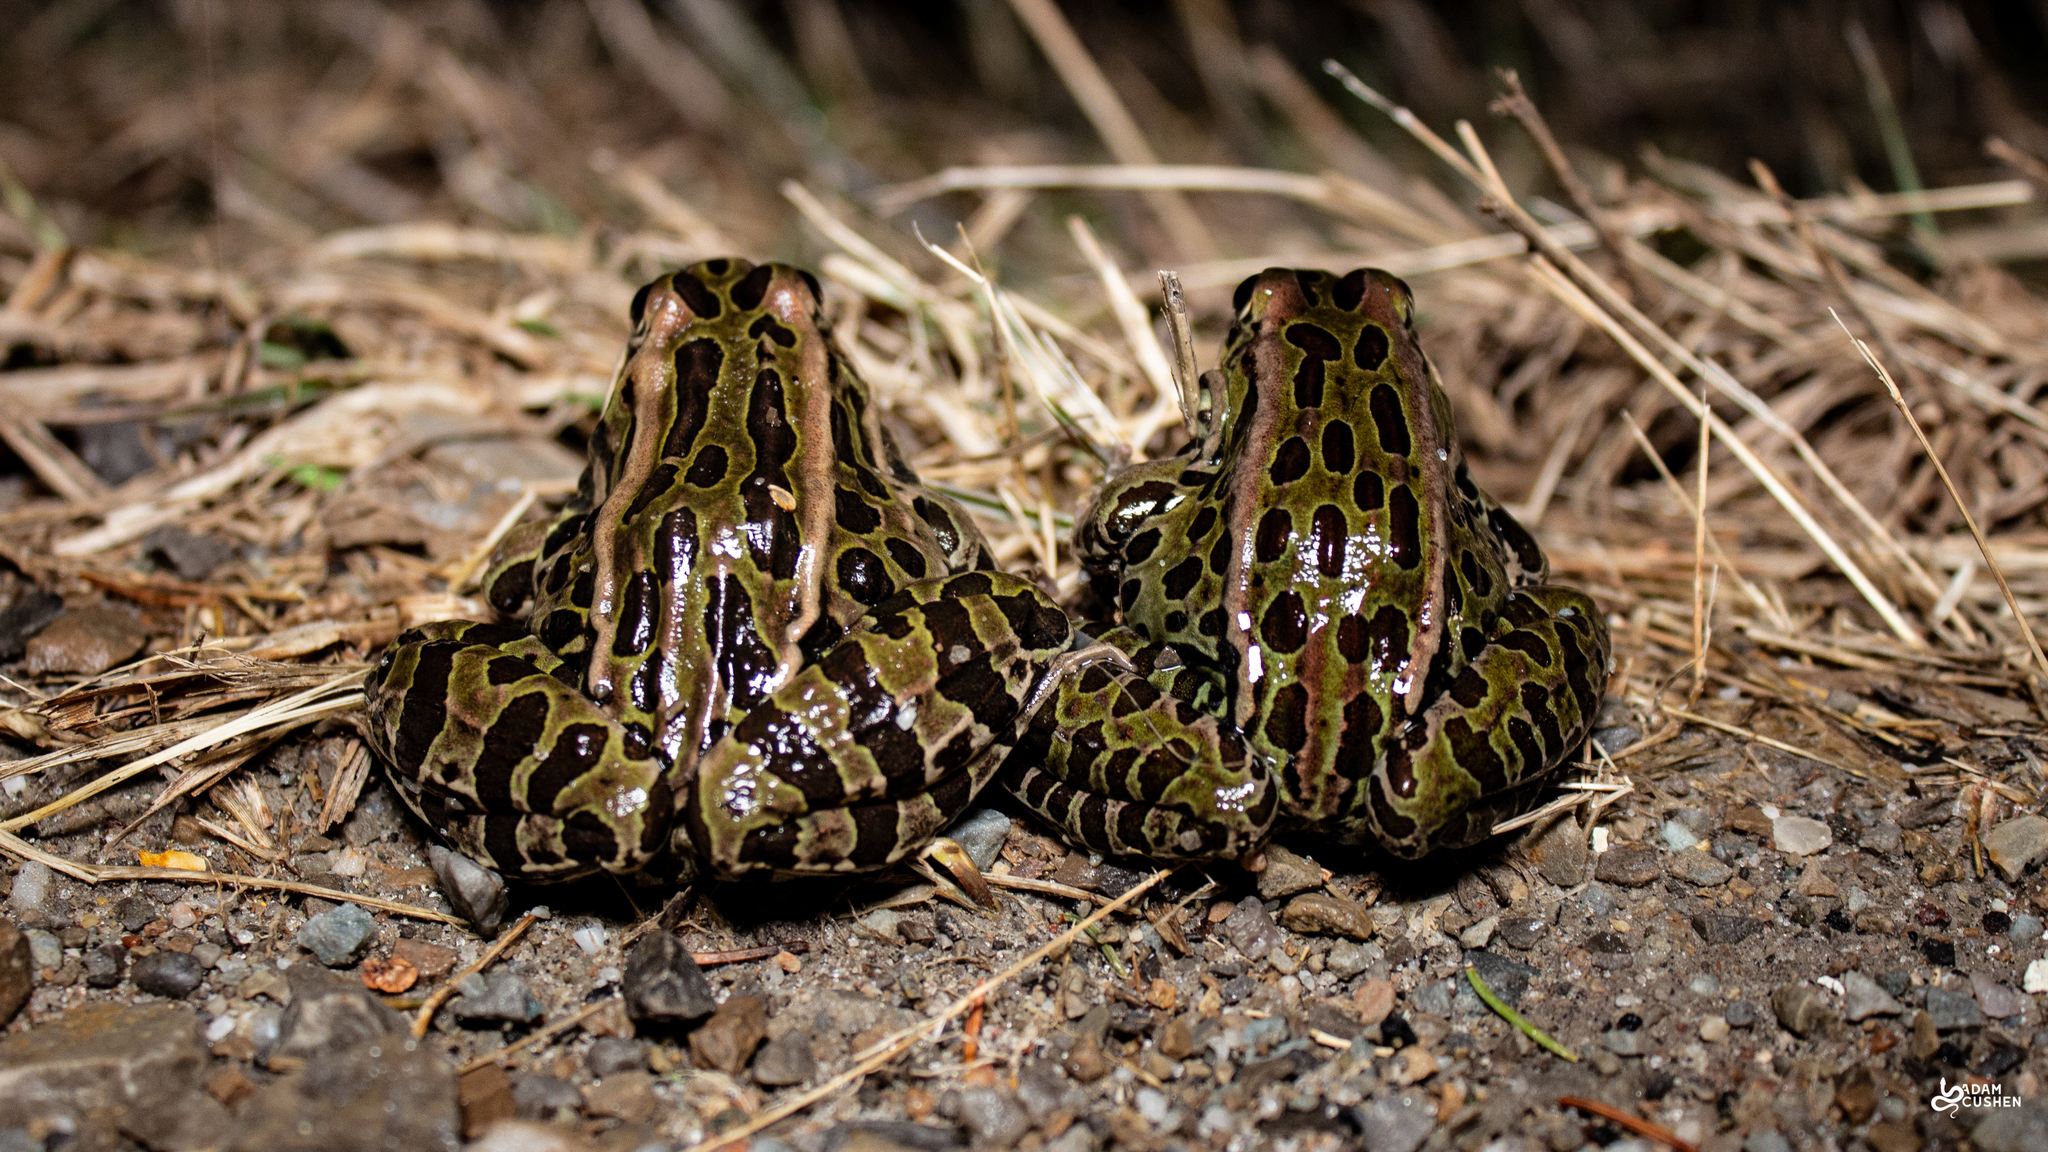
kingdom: Animalia
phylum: Chordata
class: Amphibia
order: Anura
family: Ranidae
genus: Lithobates
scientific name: Lithobates pipiens
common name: Northern leopard frog
